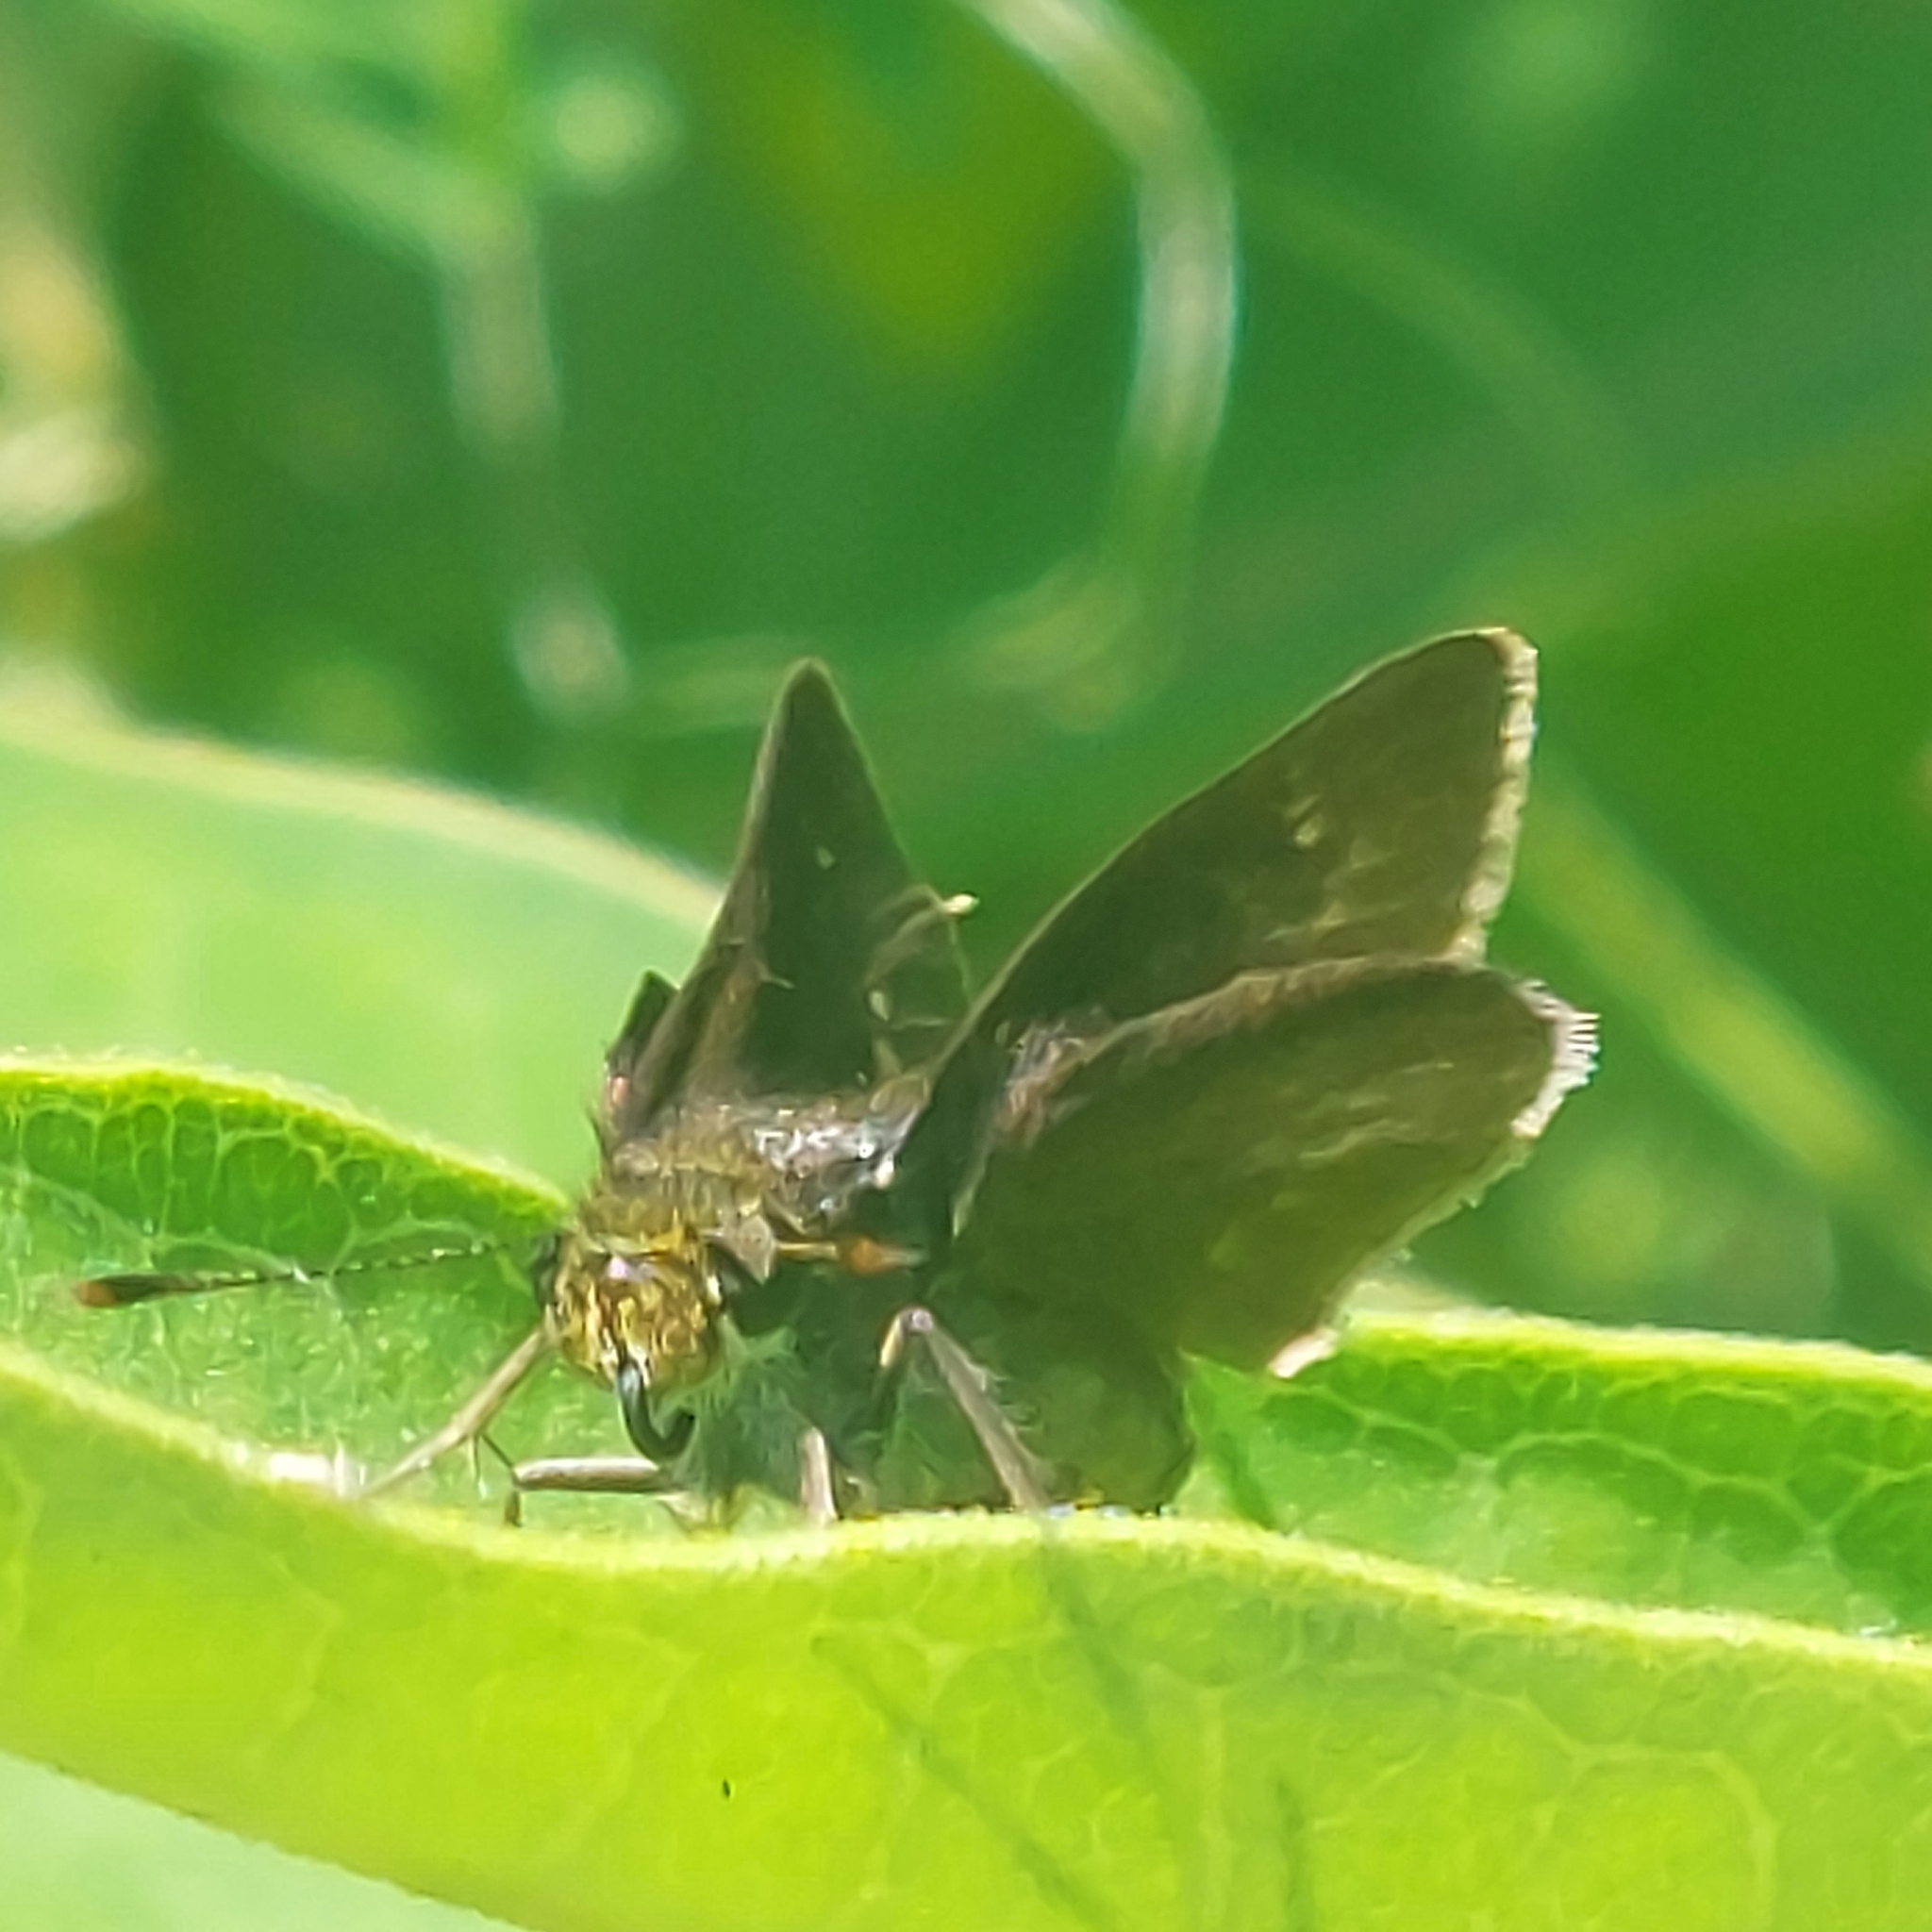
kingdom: Animalia
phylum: Arthropoda
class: Insecta
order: Lepidoptera
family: Hesperiidae
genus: Euphyes
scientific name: Euphyes vestris
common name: Dun skipper
